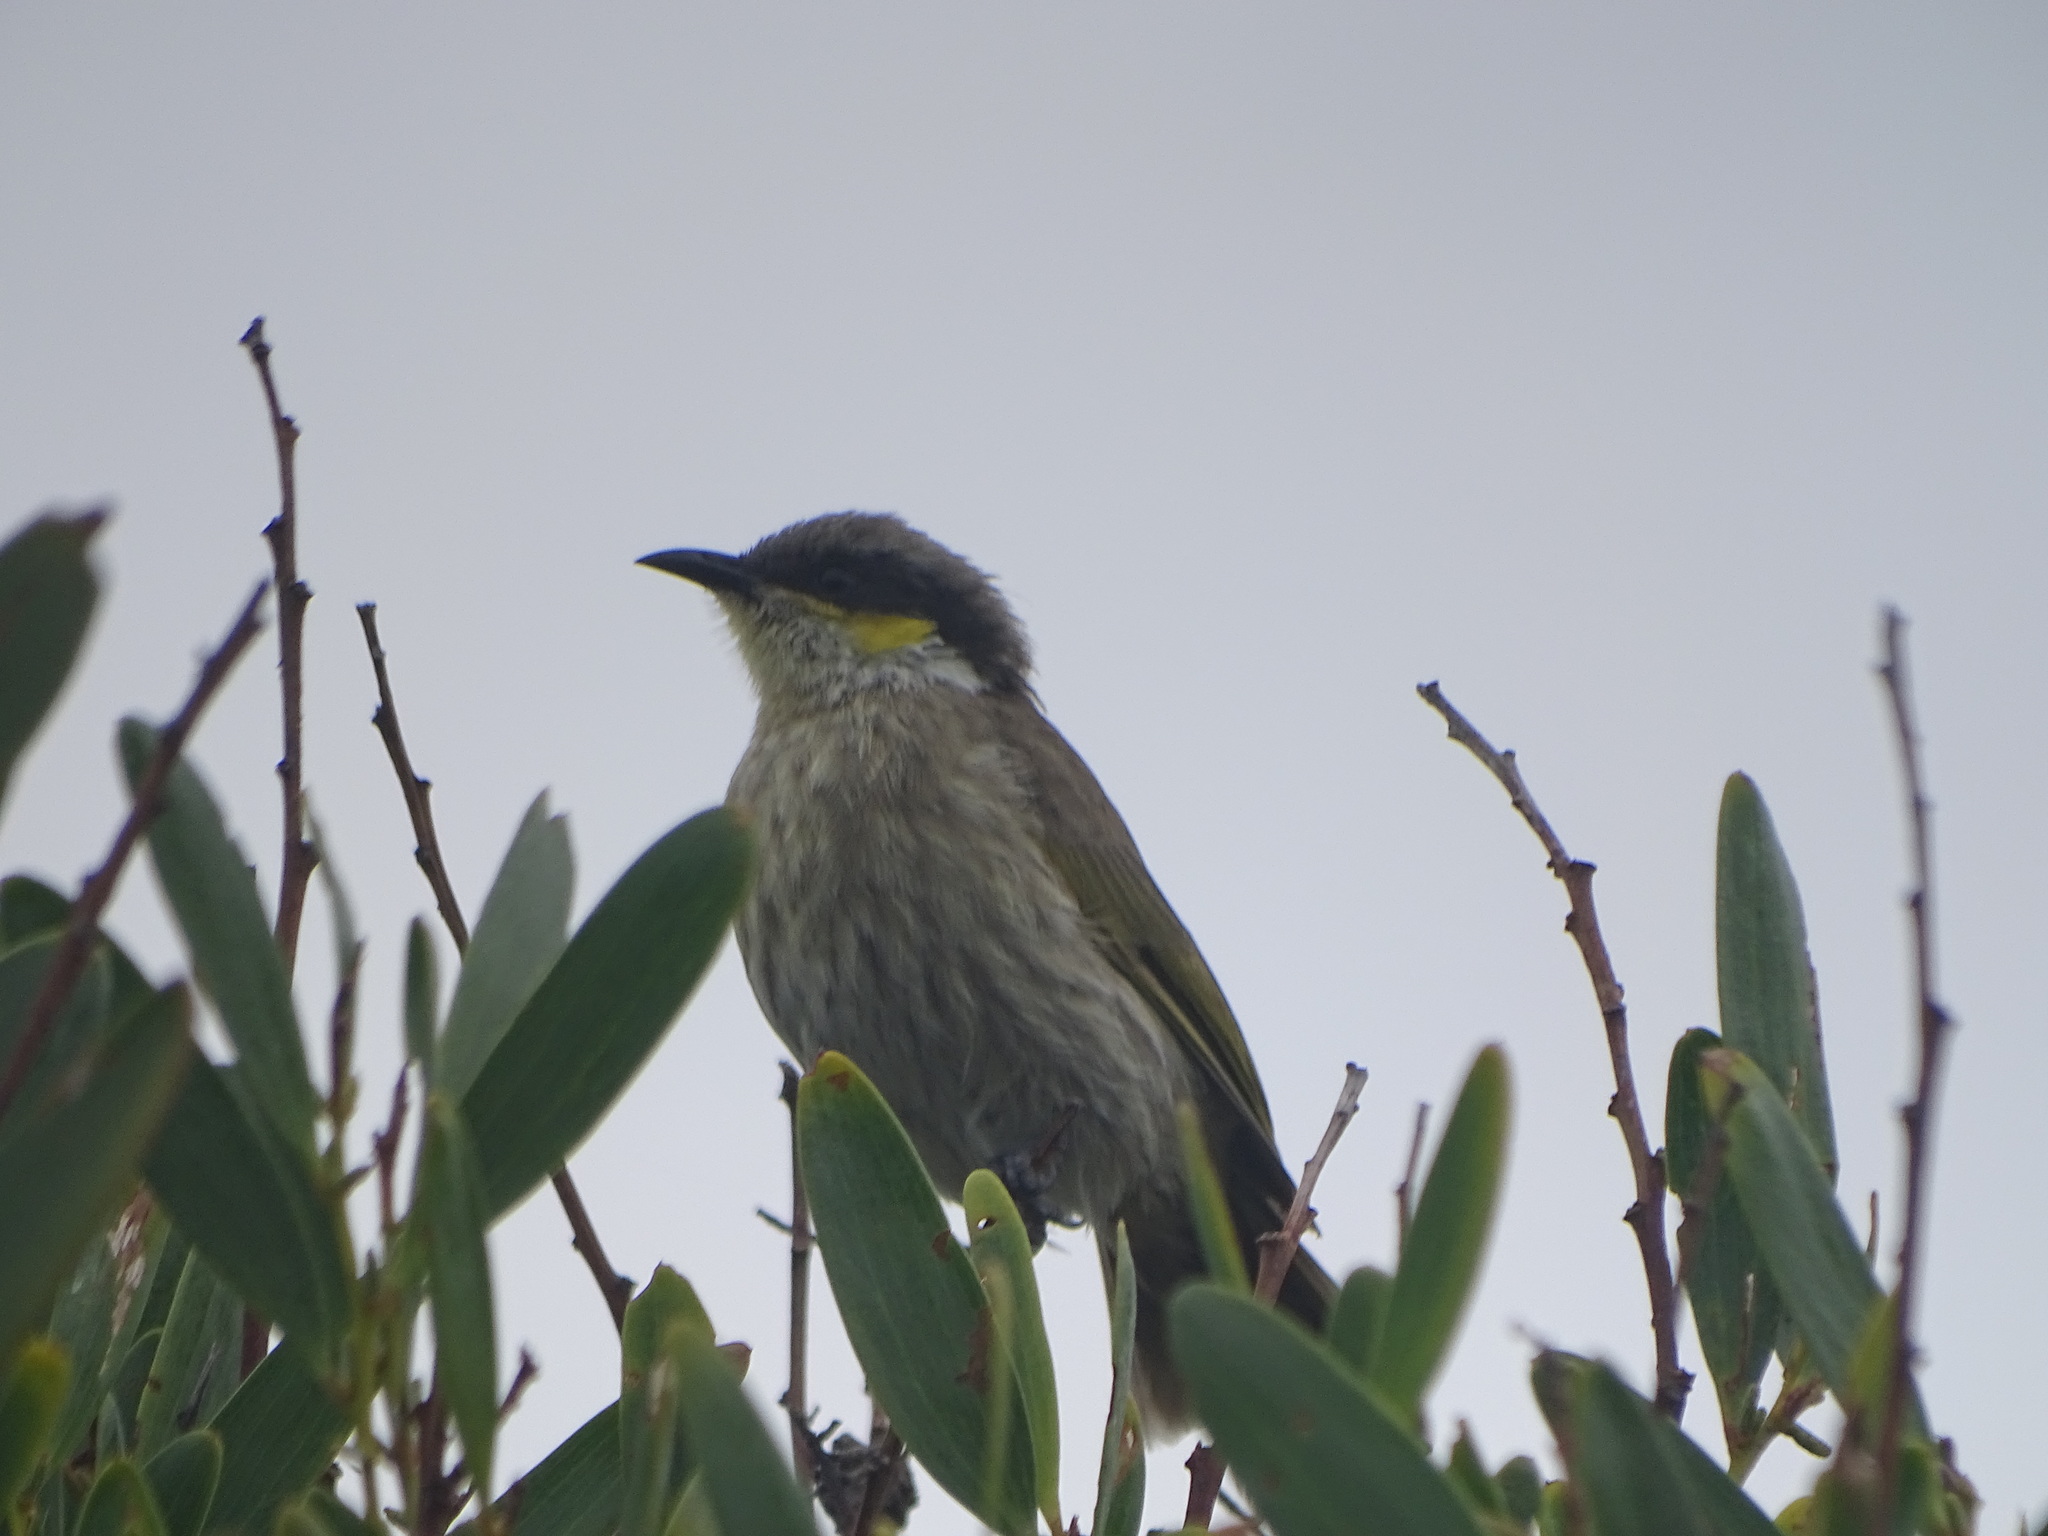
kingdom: Animalia
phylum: Chordata
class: Aves
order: Passeriformes
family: Meliphagidae
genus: Gavicalis
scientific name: Gavicalis virescens
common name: Singing honeyeater
